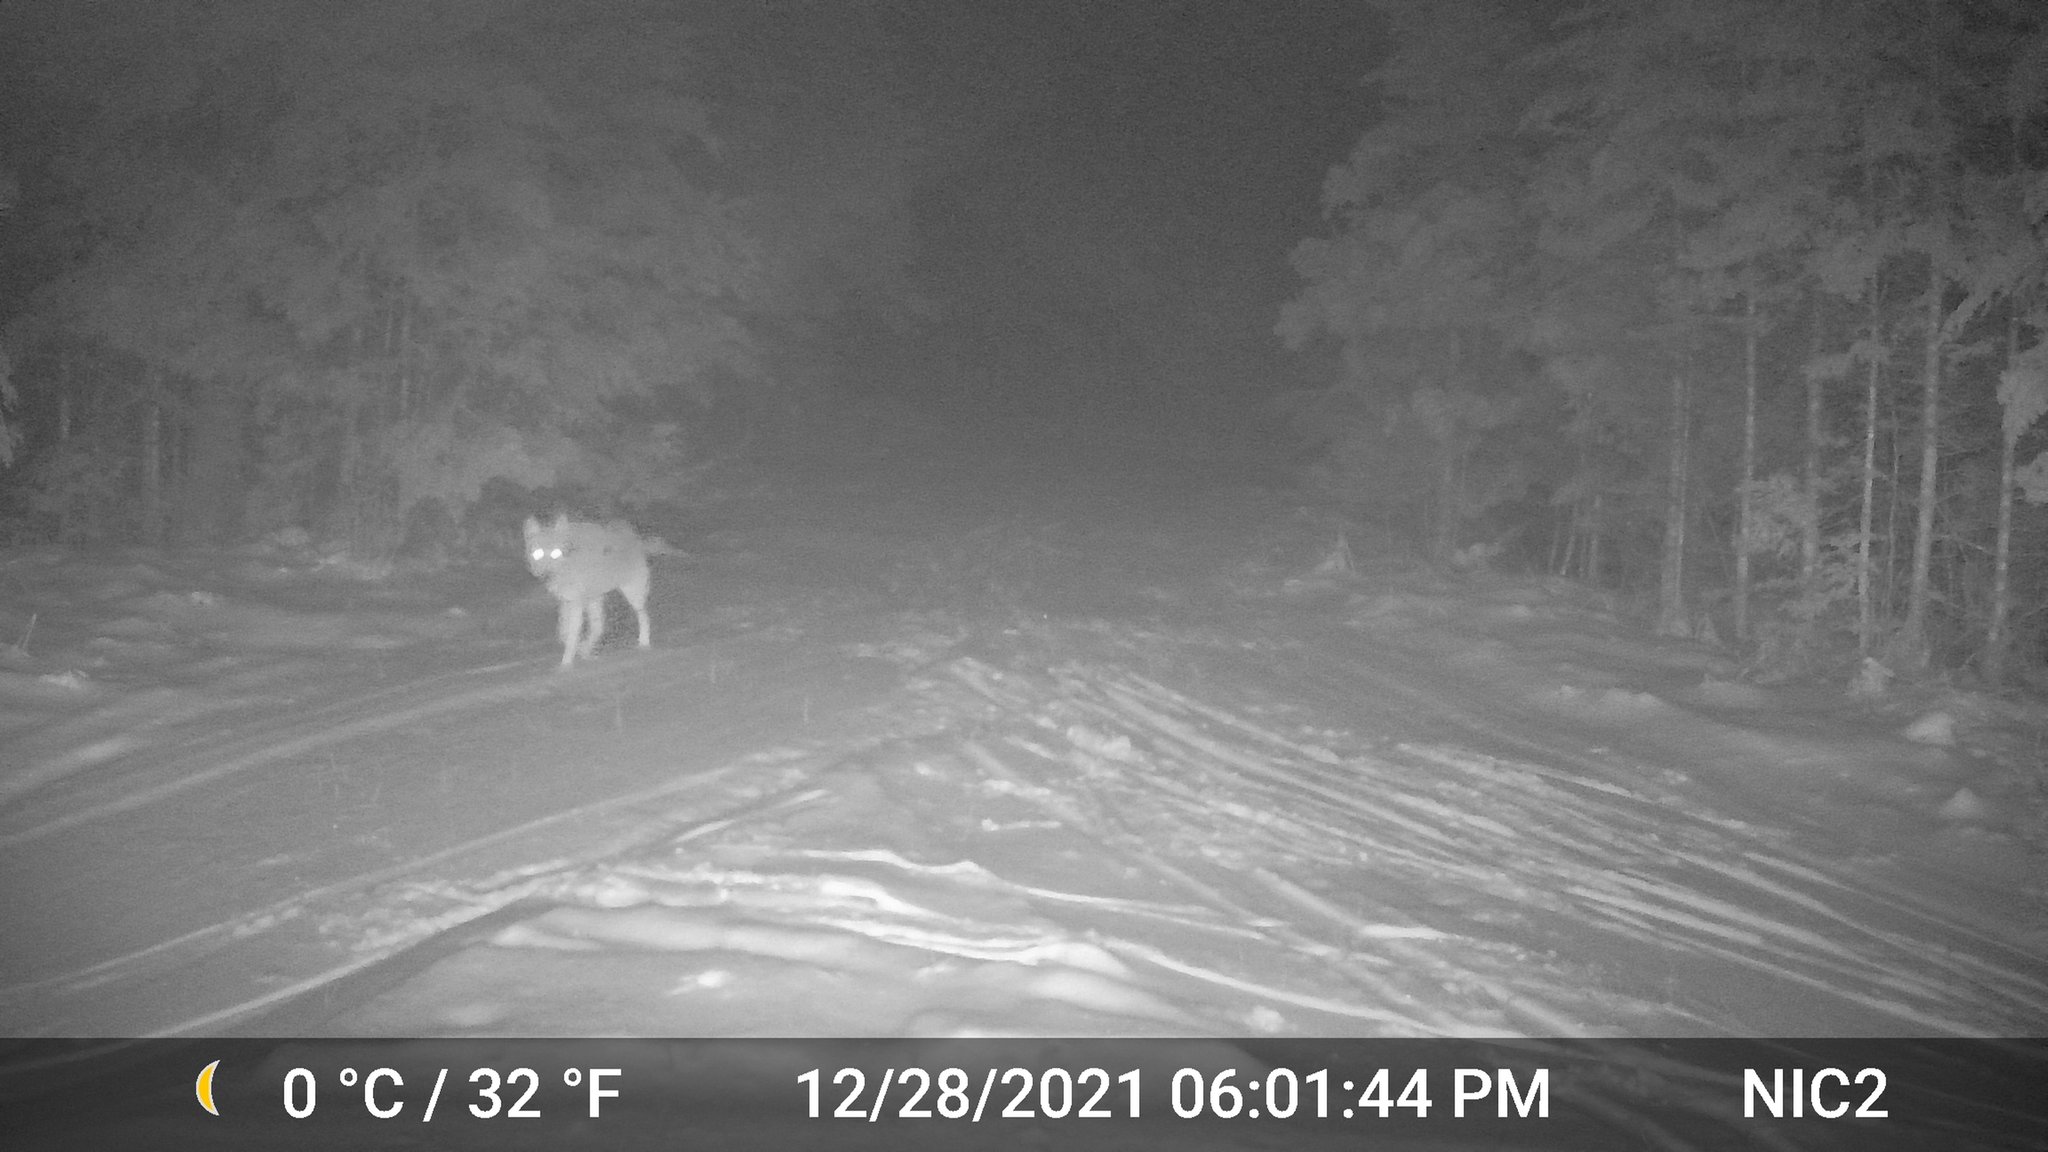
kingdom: Animalia
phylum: Chordata
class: Mammalia
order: Carnivora
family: Canidae
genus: Canis
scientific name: Canis latrans
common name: Coyote
